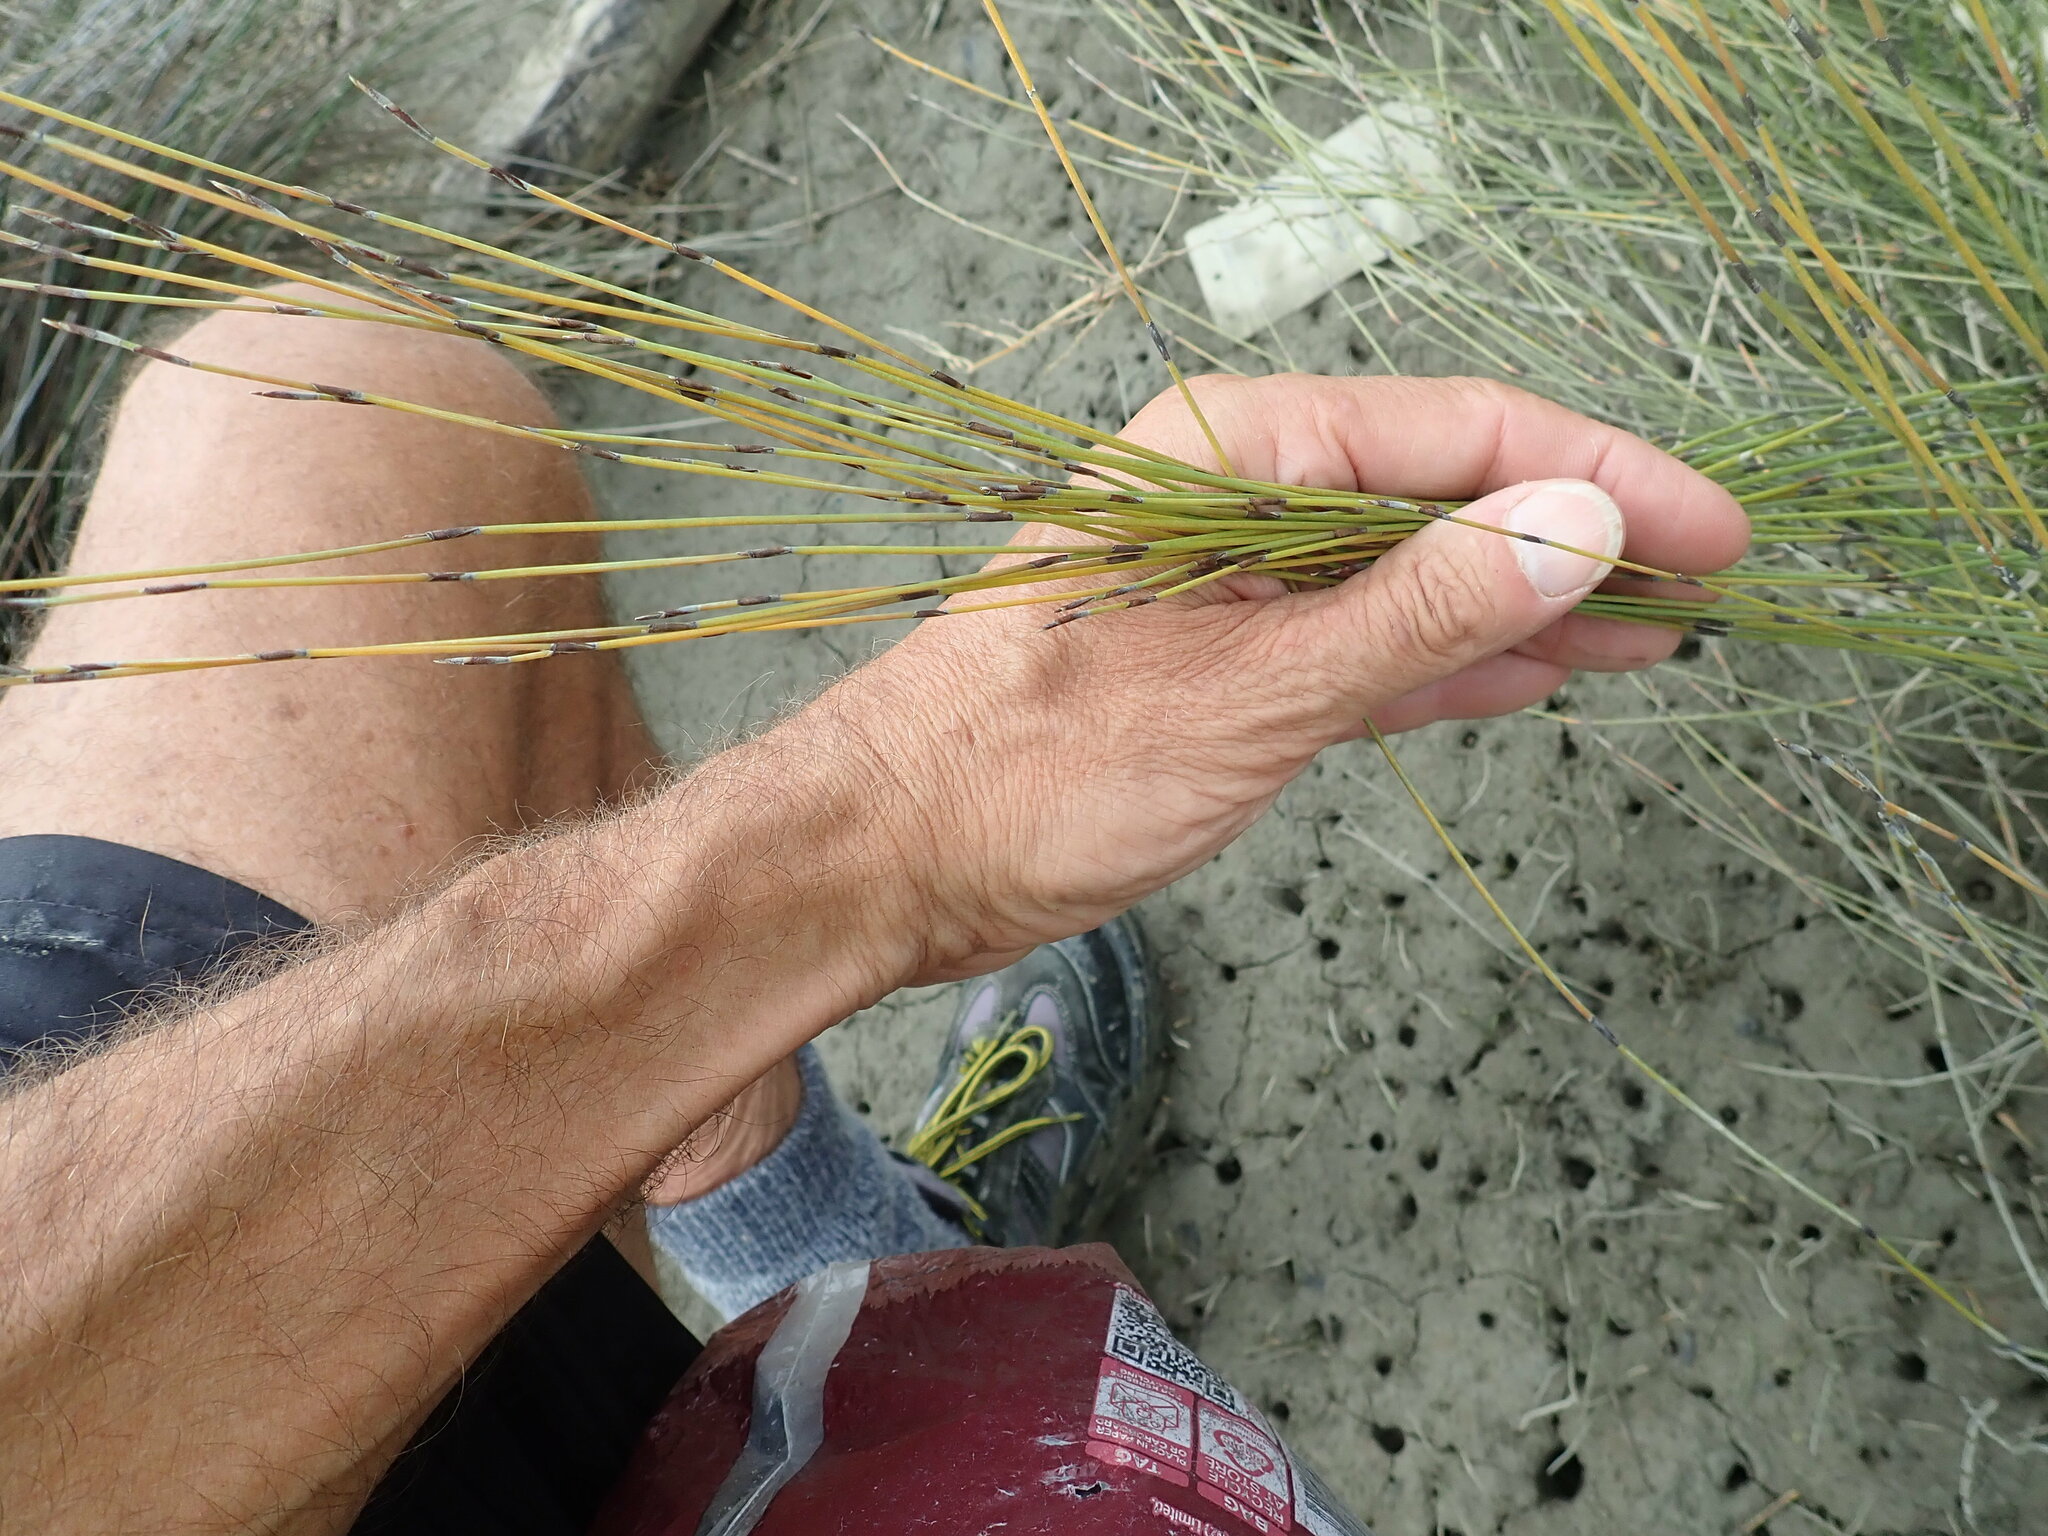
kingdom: Plantae
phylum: Tracheophyta
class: Liliopsida
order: Poales
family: Restionaceae
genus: Apodasmia
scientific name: Apodasmia similis
